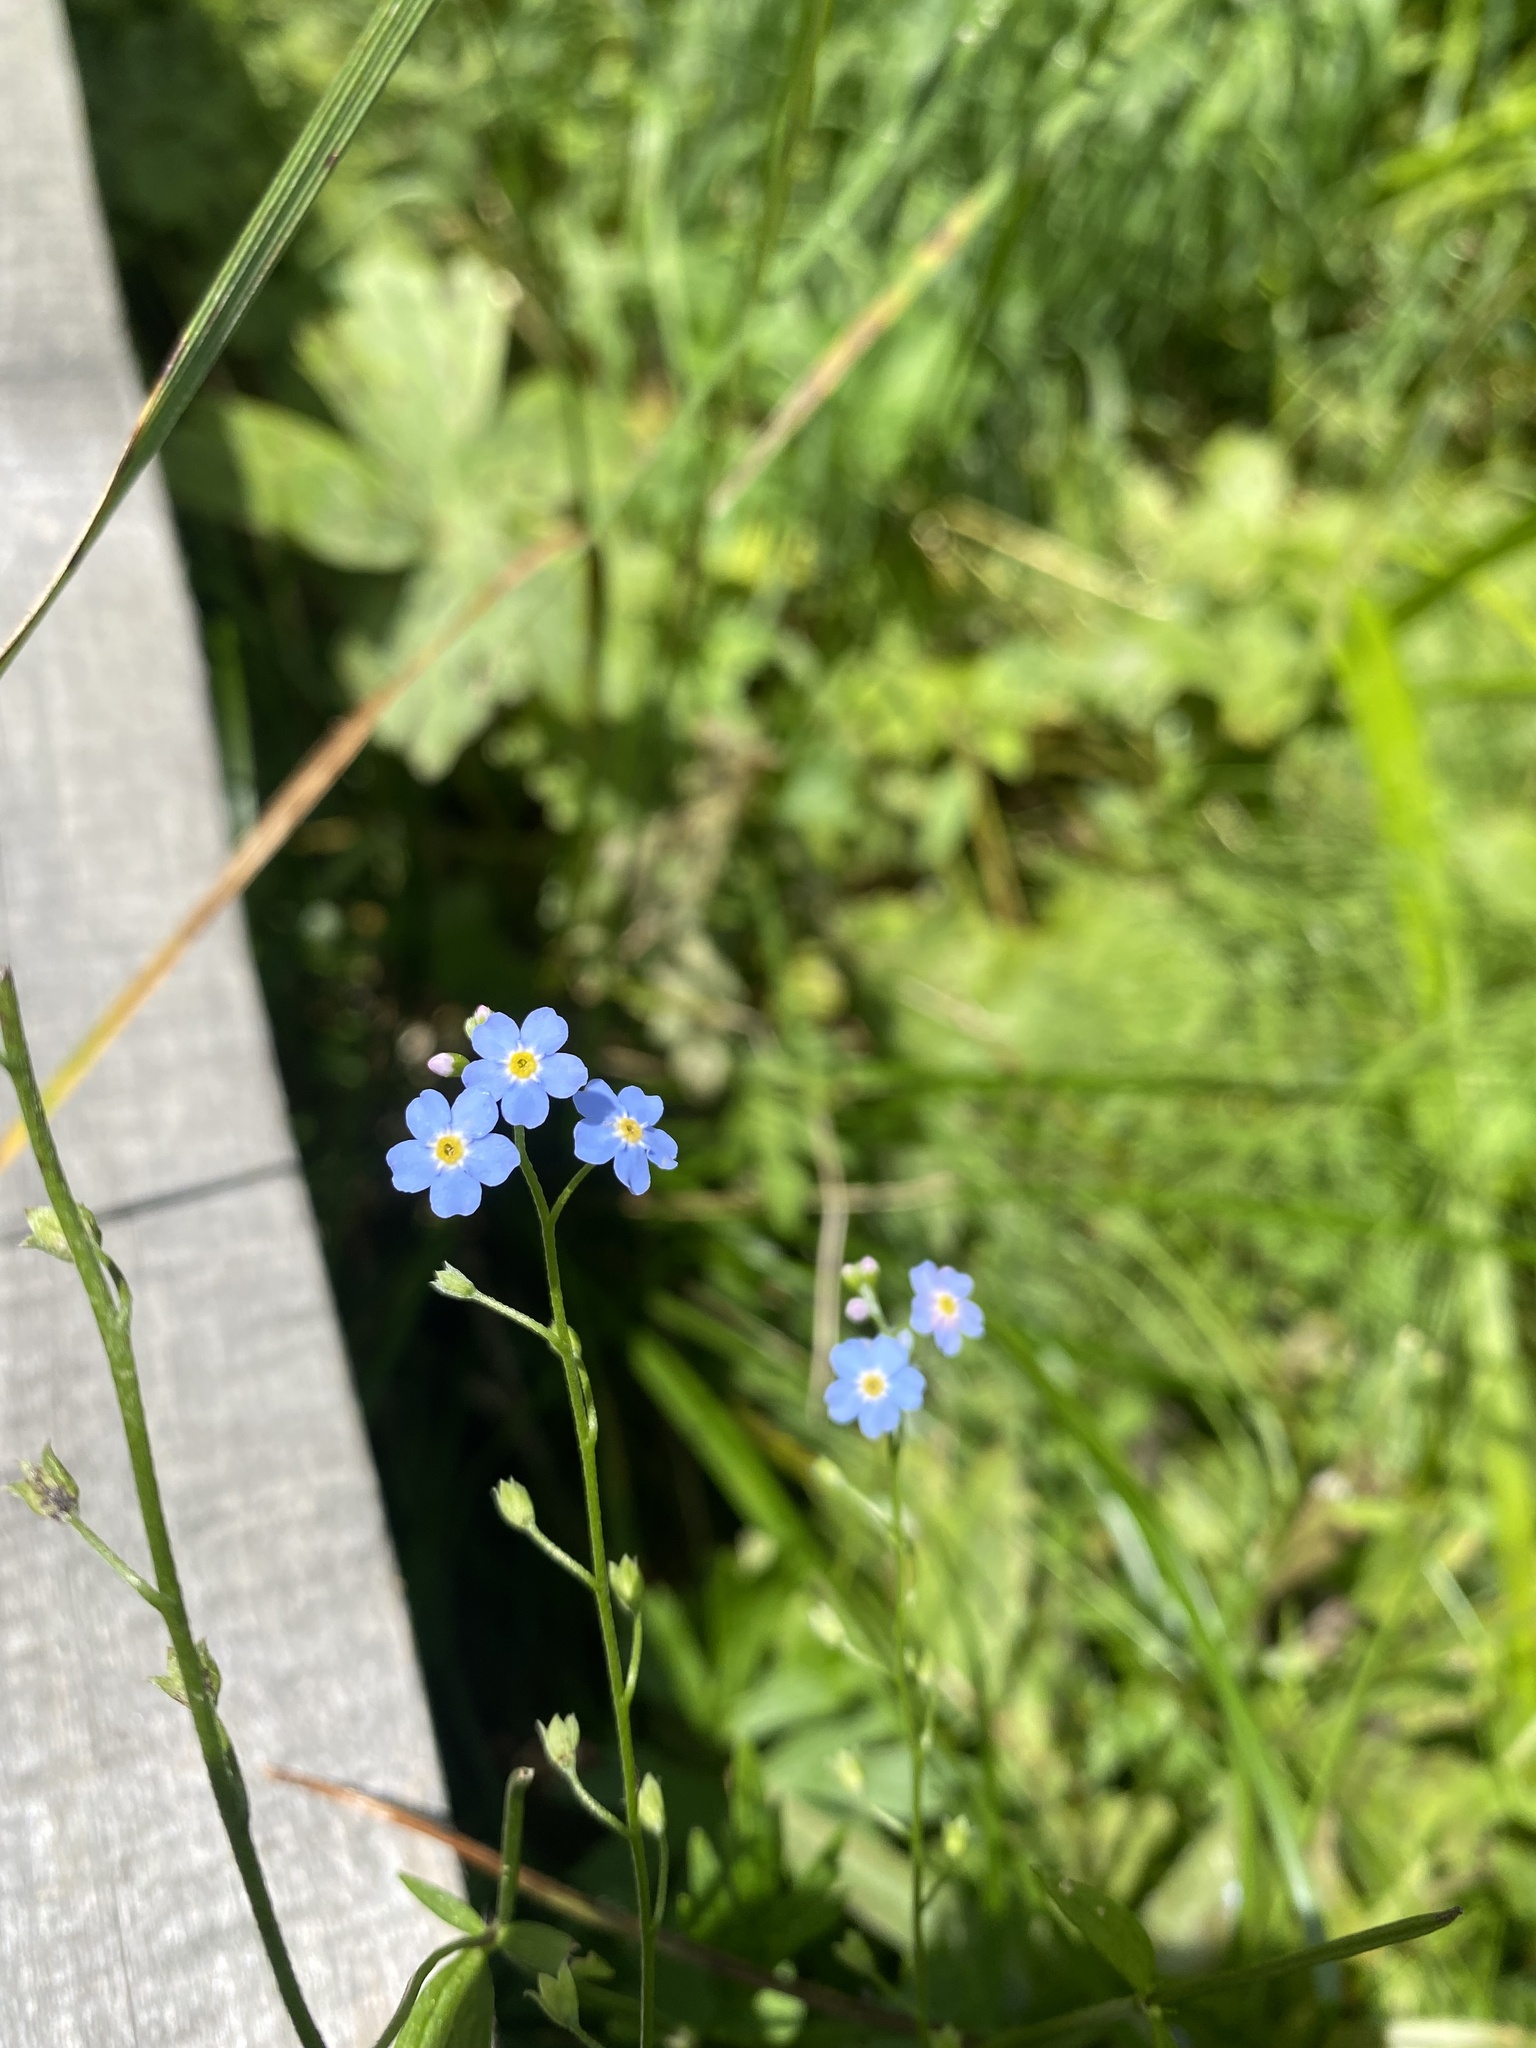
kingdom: Plantae
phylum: Tracheophyta
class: Magnoliopsida
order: Boraginales
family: Boraginaceae
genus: Myosotis
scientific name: Myosotis scorpioides
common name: Water forget-me-not
